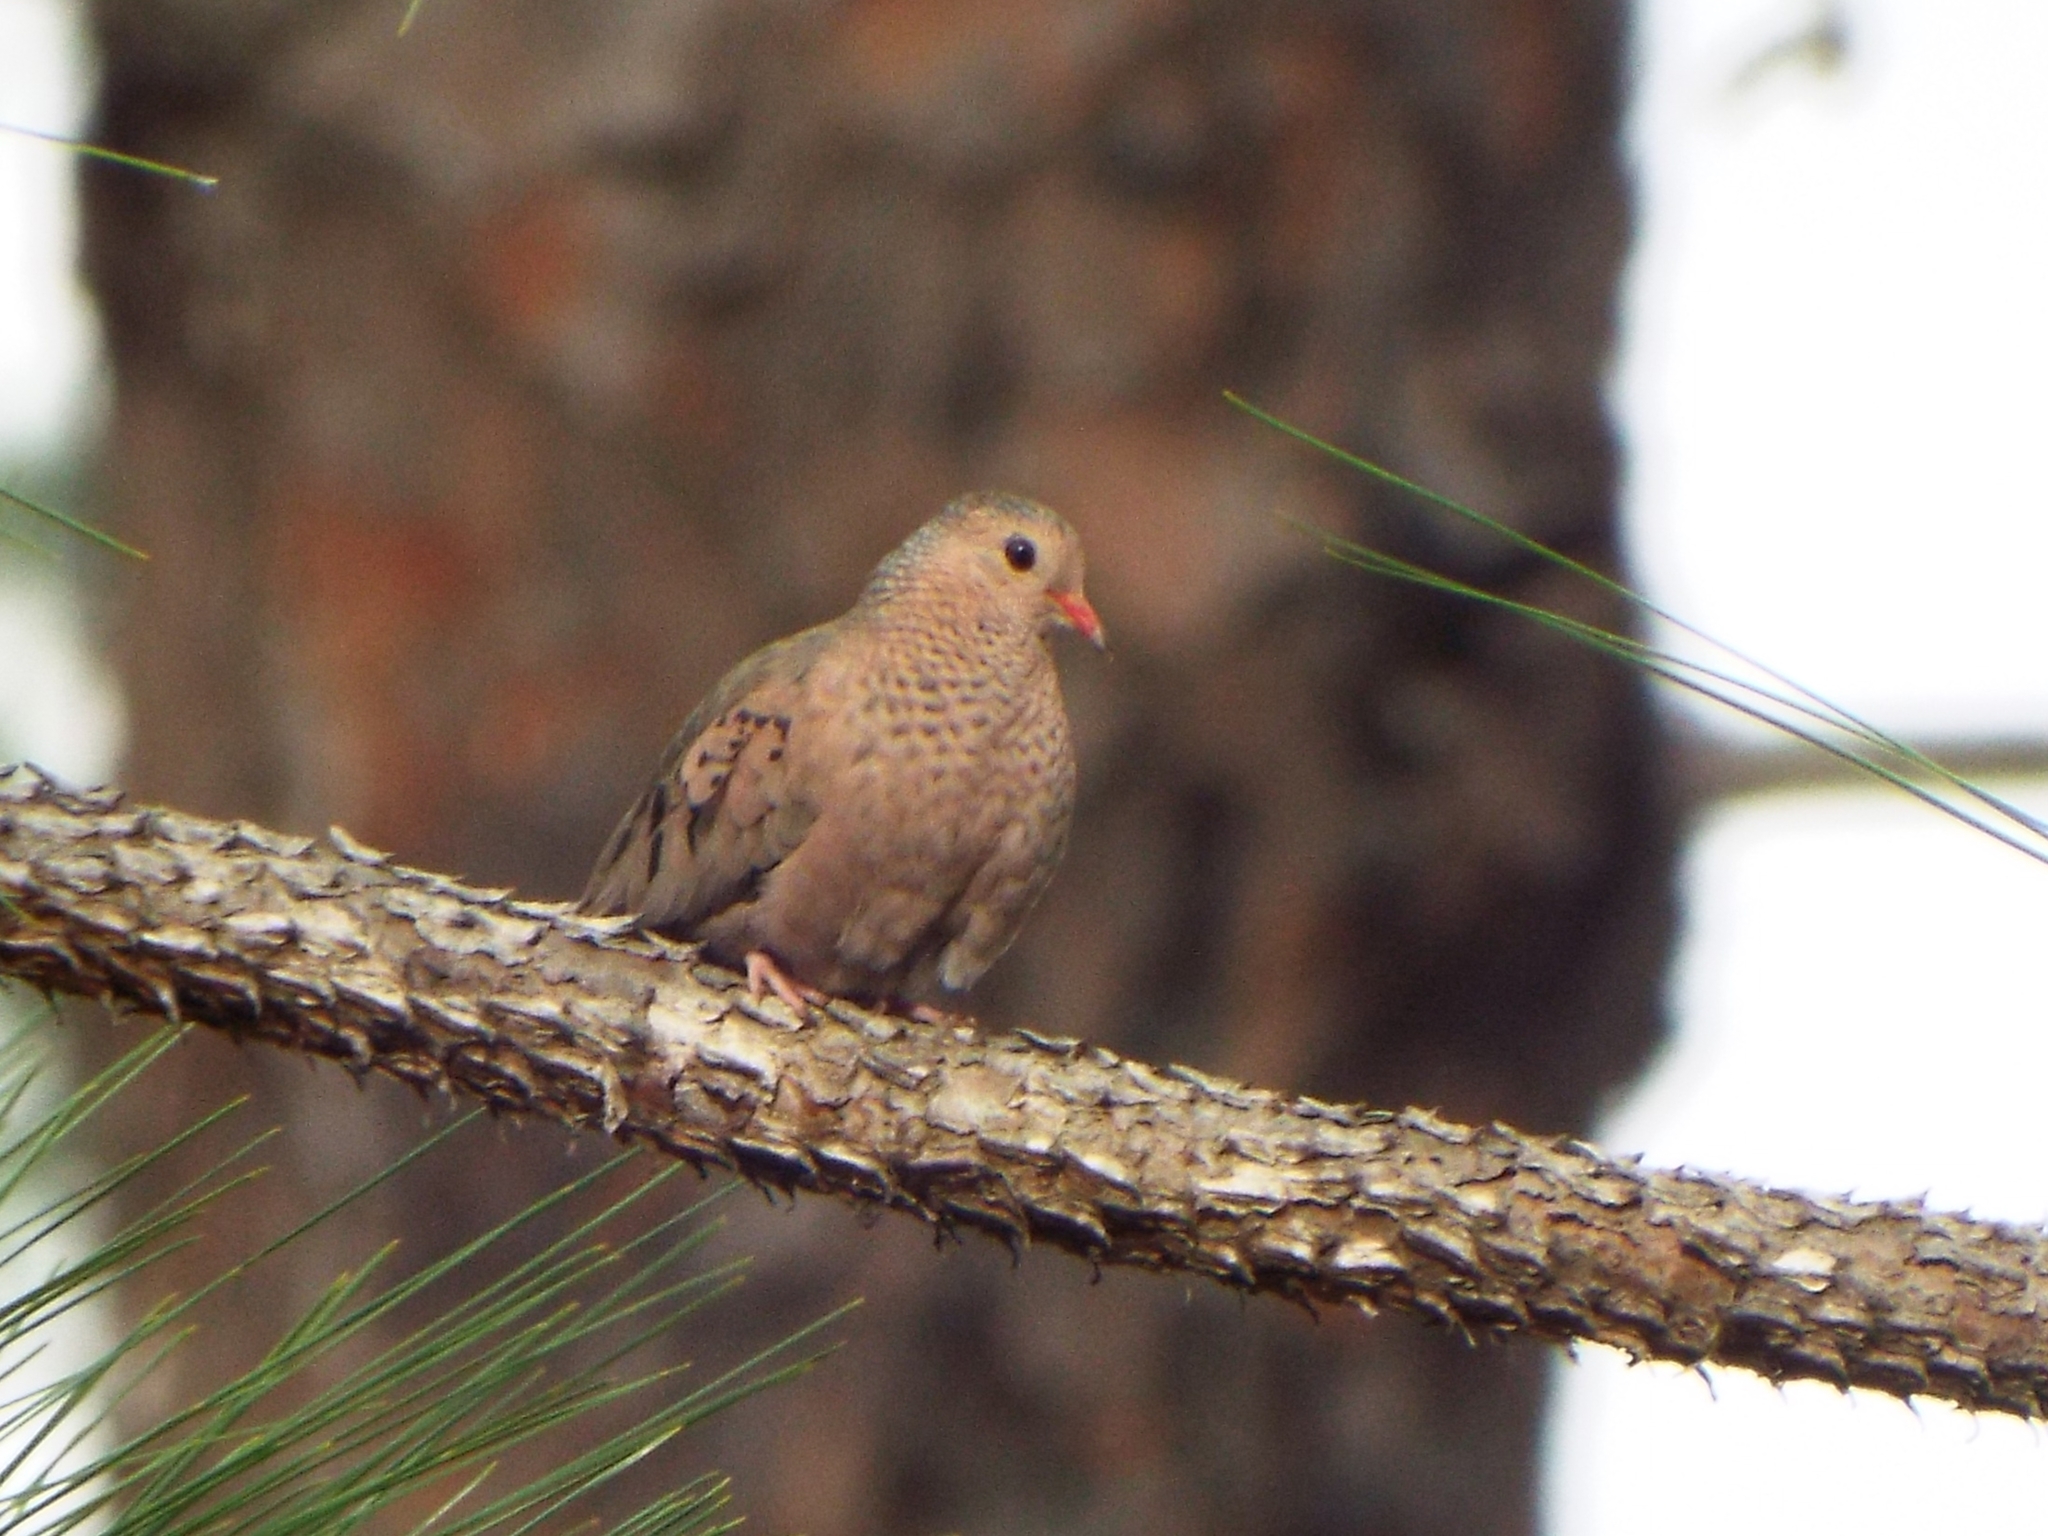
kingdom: Animalia
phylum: Chordata
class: Aves
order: Columbiformes
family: Columbidae
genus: Columbina
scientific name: Columbina passerina
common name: Common ground-dove
